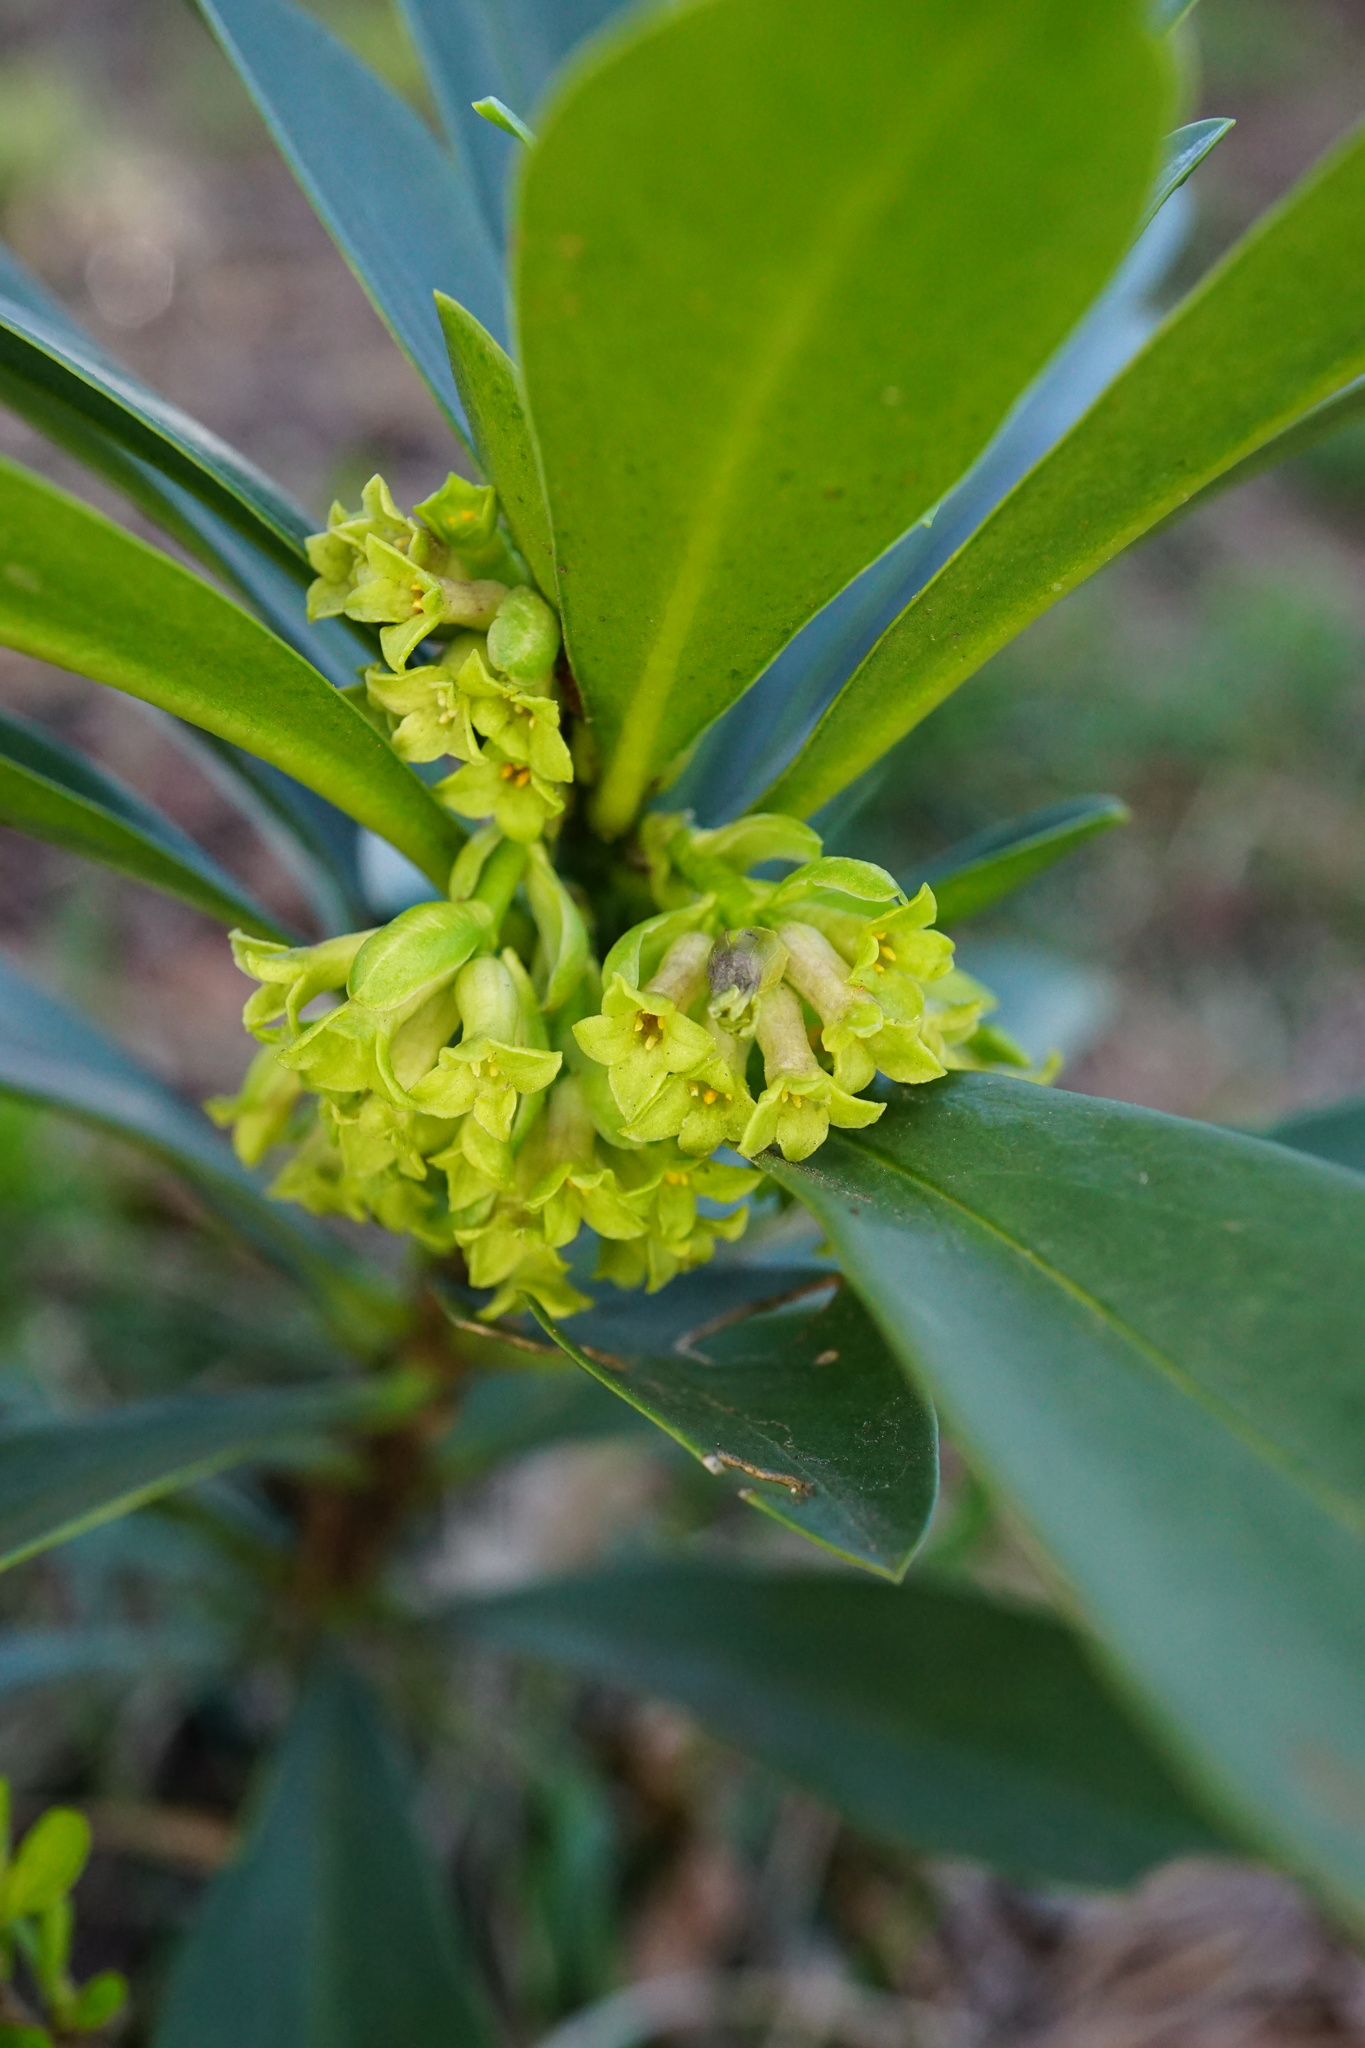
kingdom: Plantae
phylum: Tracheophyta
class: Magnoliopsida
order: Malvales
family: Thymelaeaceae
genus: Daphne
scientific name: Daphne laureola
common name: Spurge-laurel
